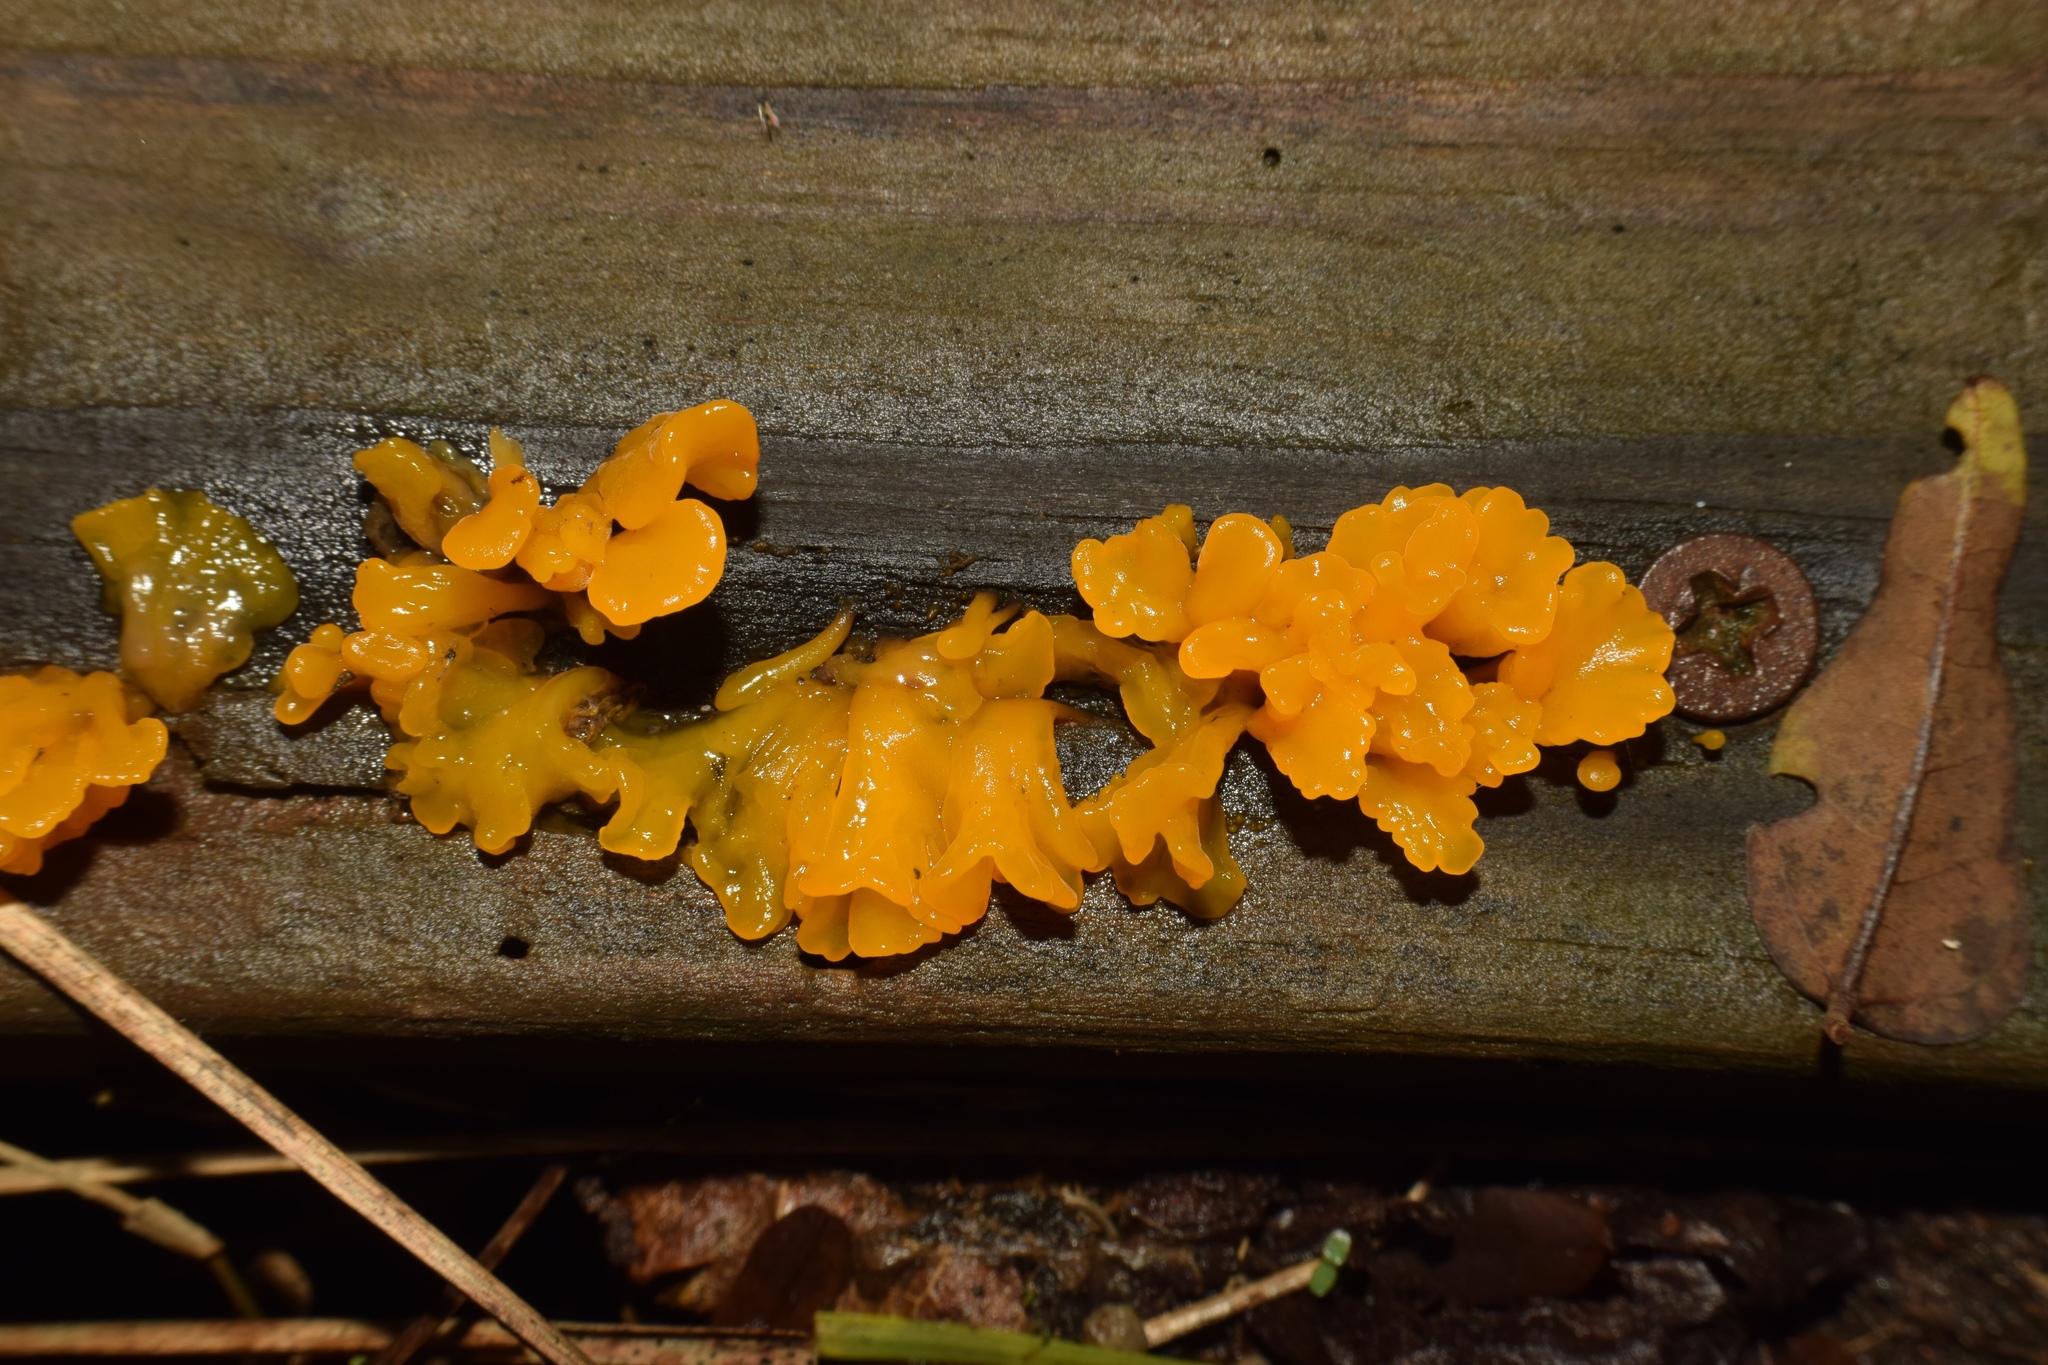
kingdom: Fungi
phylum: Basidiomycota
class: Dacrymycetes
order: Dacrymycetales
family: Dacrymycetaceae
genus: Dacrymyces
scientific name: Dacrymyces spathularius
